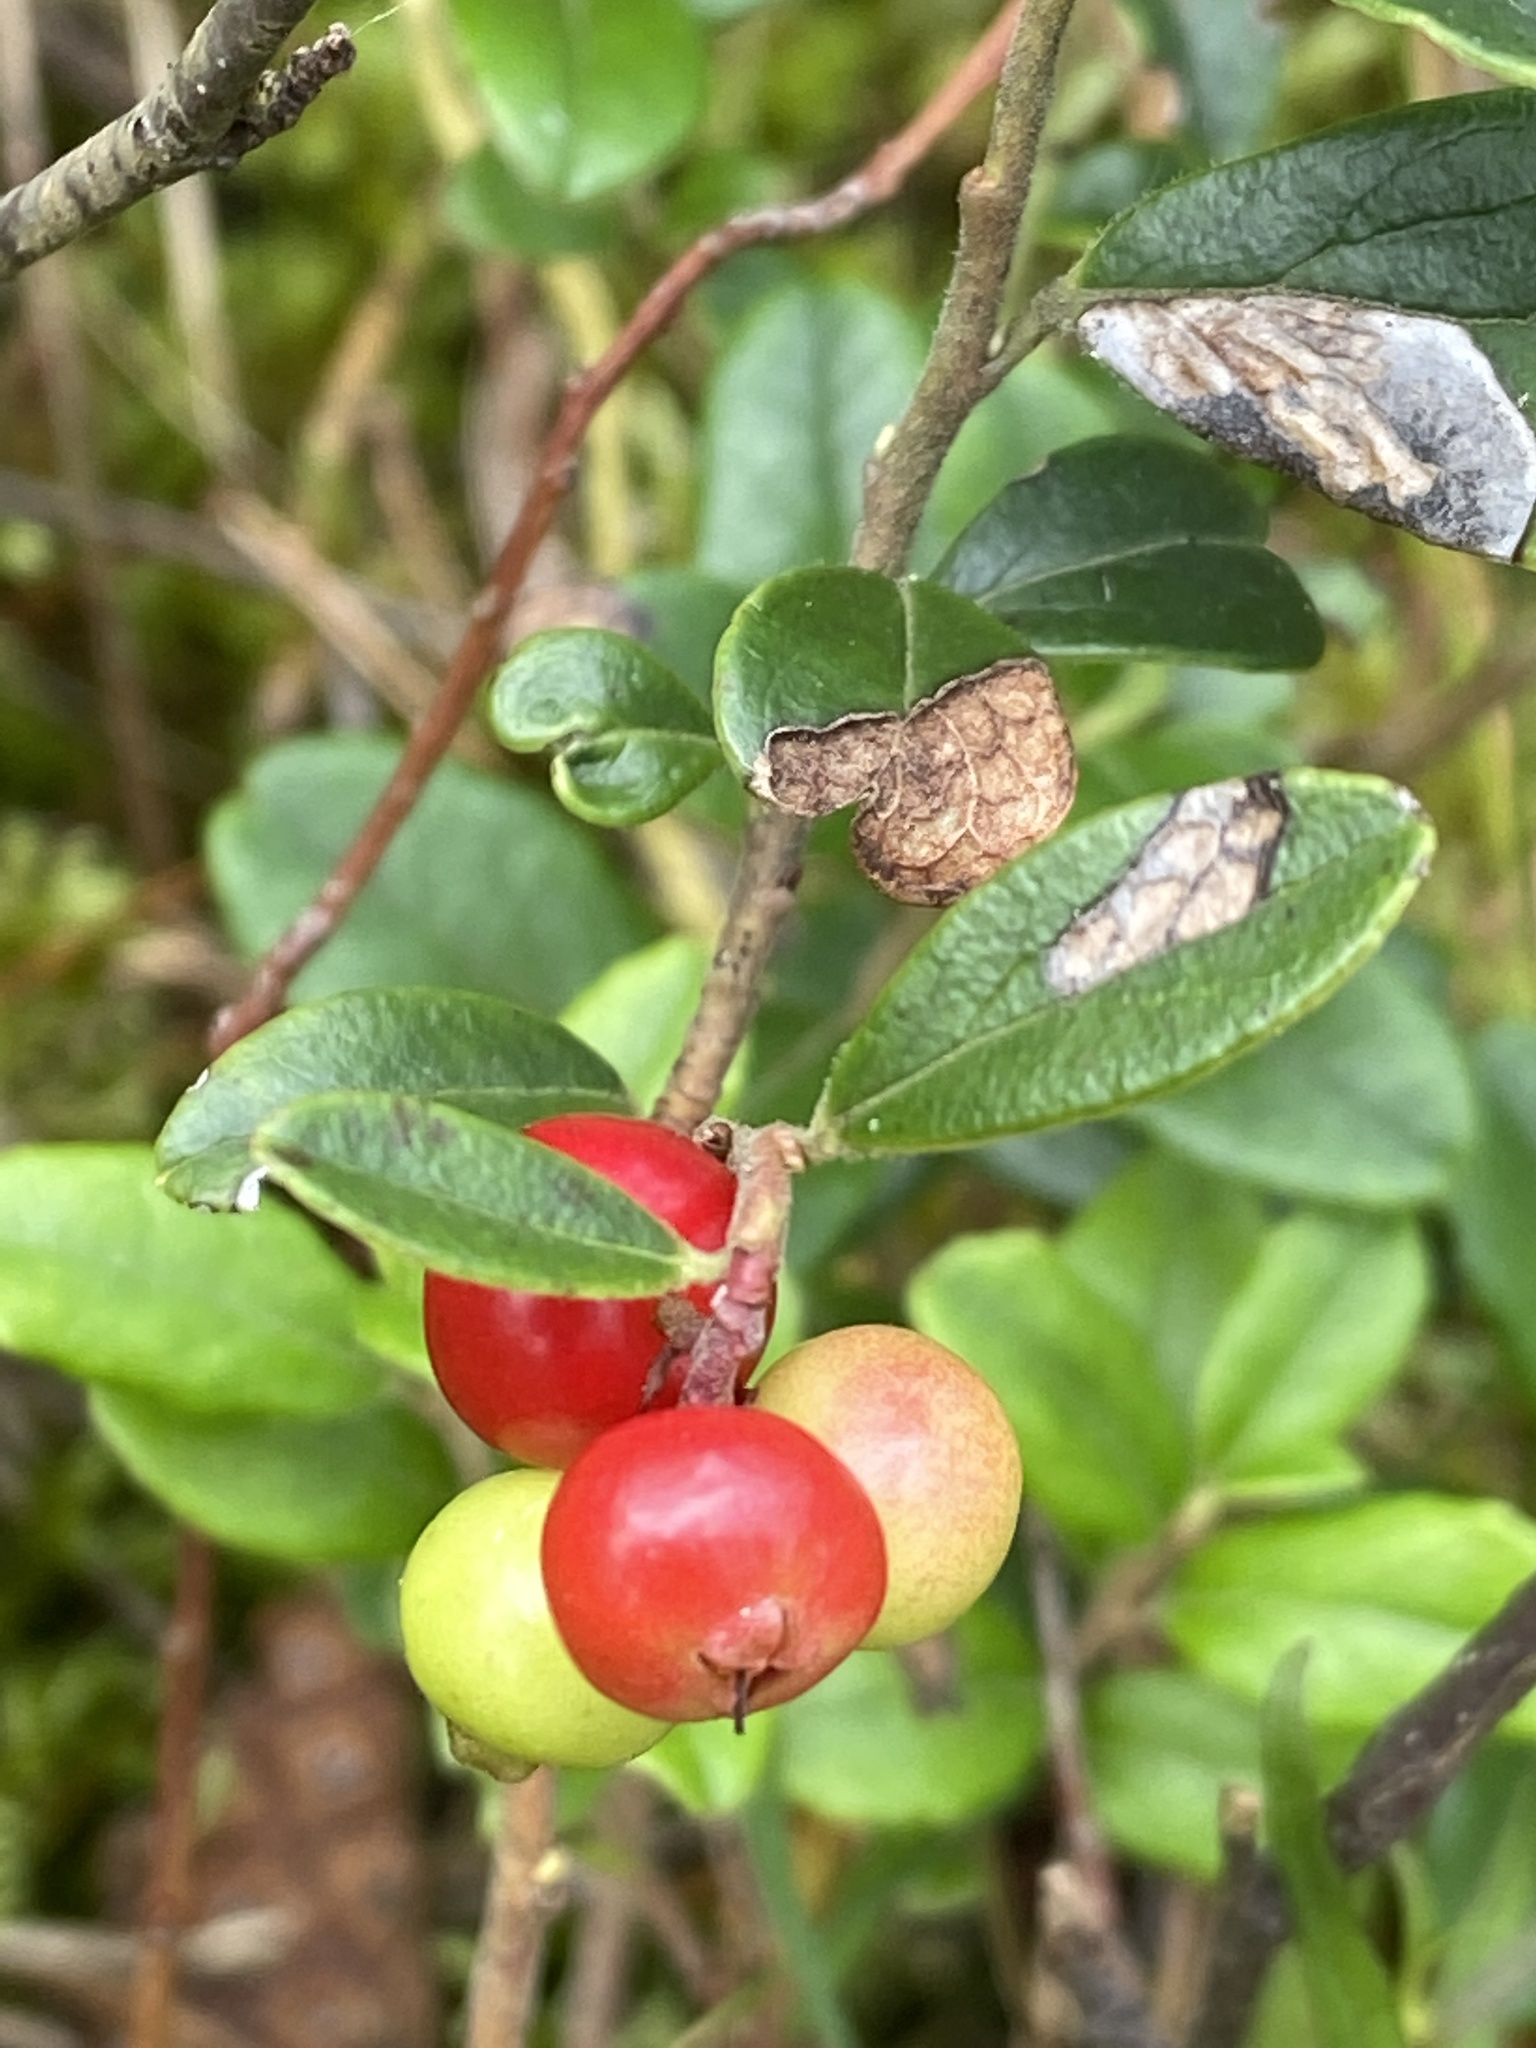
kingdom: Plantae
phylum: Tracheophyta
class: Magnoliopsida
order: Ericales
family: Ericaceae
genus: Vaccinium
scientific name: Vaccinium vitis-idaea
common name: Cowberry
